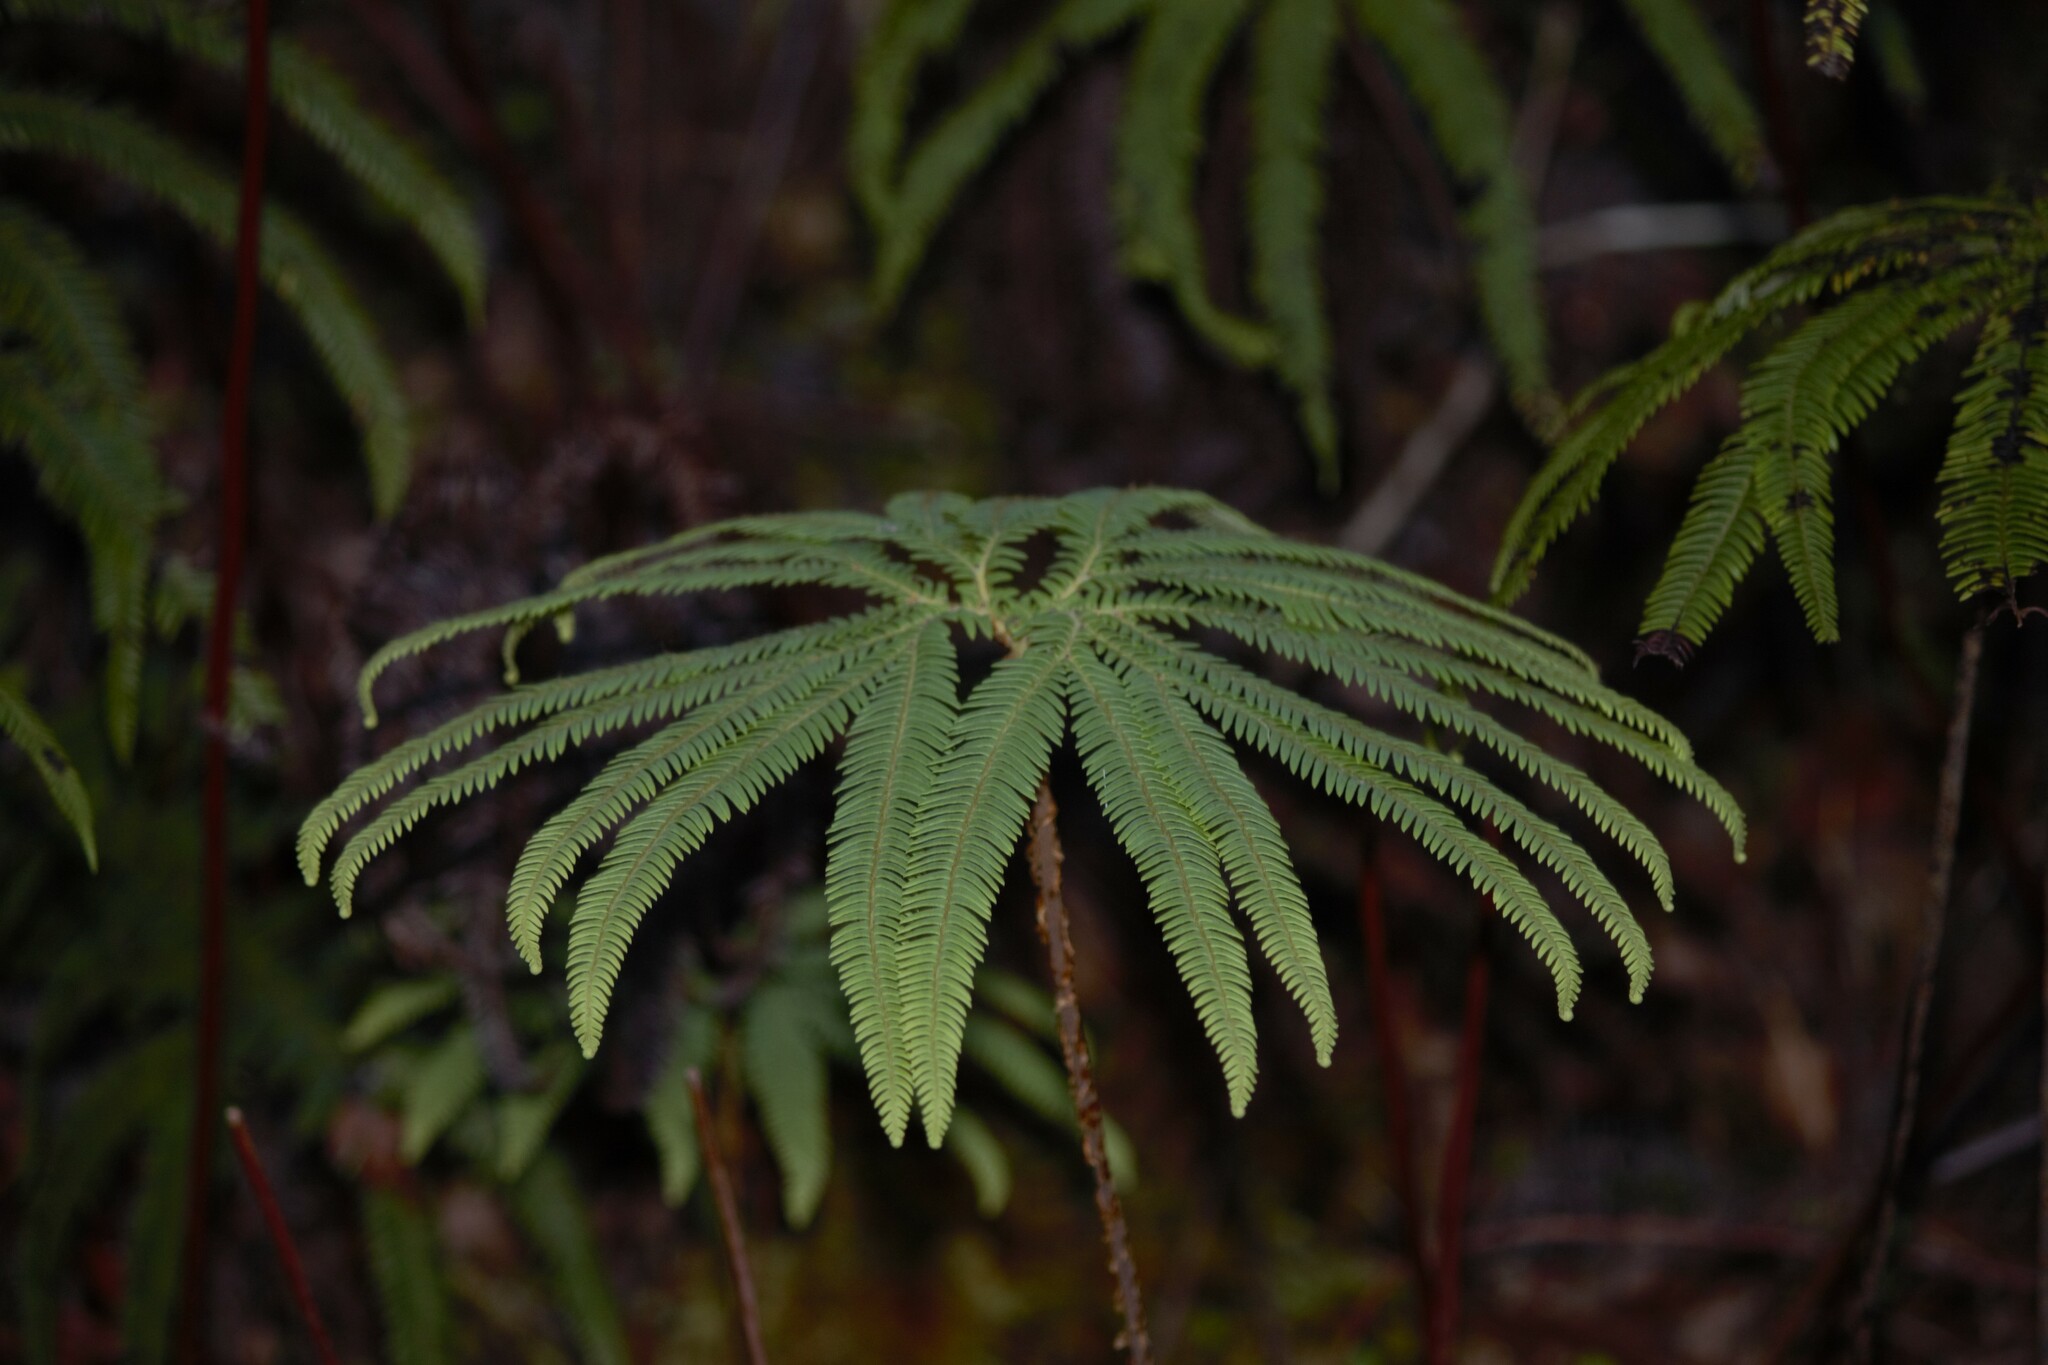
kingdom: Plantae
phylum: Tracheophyta
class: Polypodiopsida
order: Gleicheniales
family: Gleicheniaceae
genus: Sticherus
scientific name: Sticherus cunninghamii
